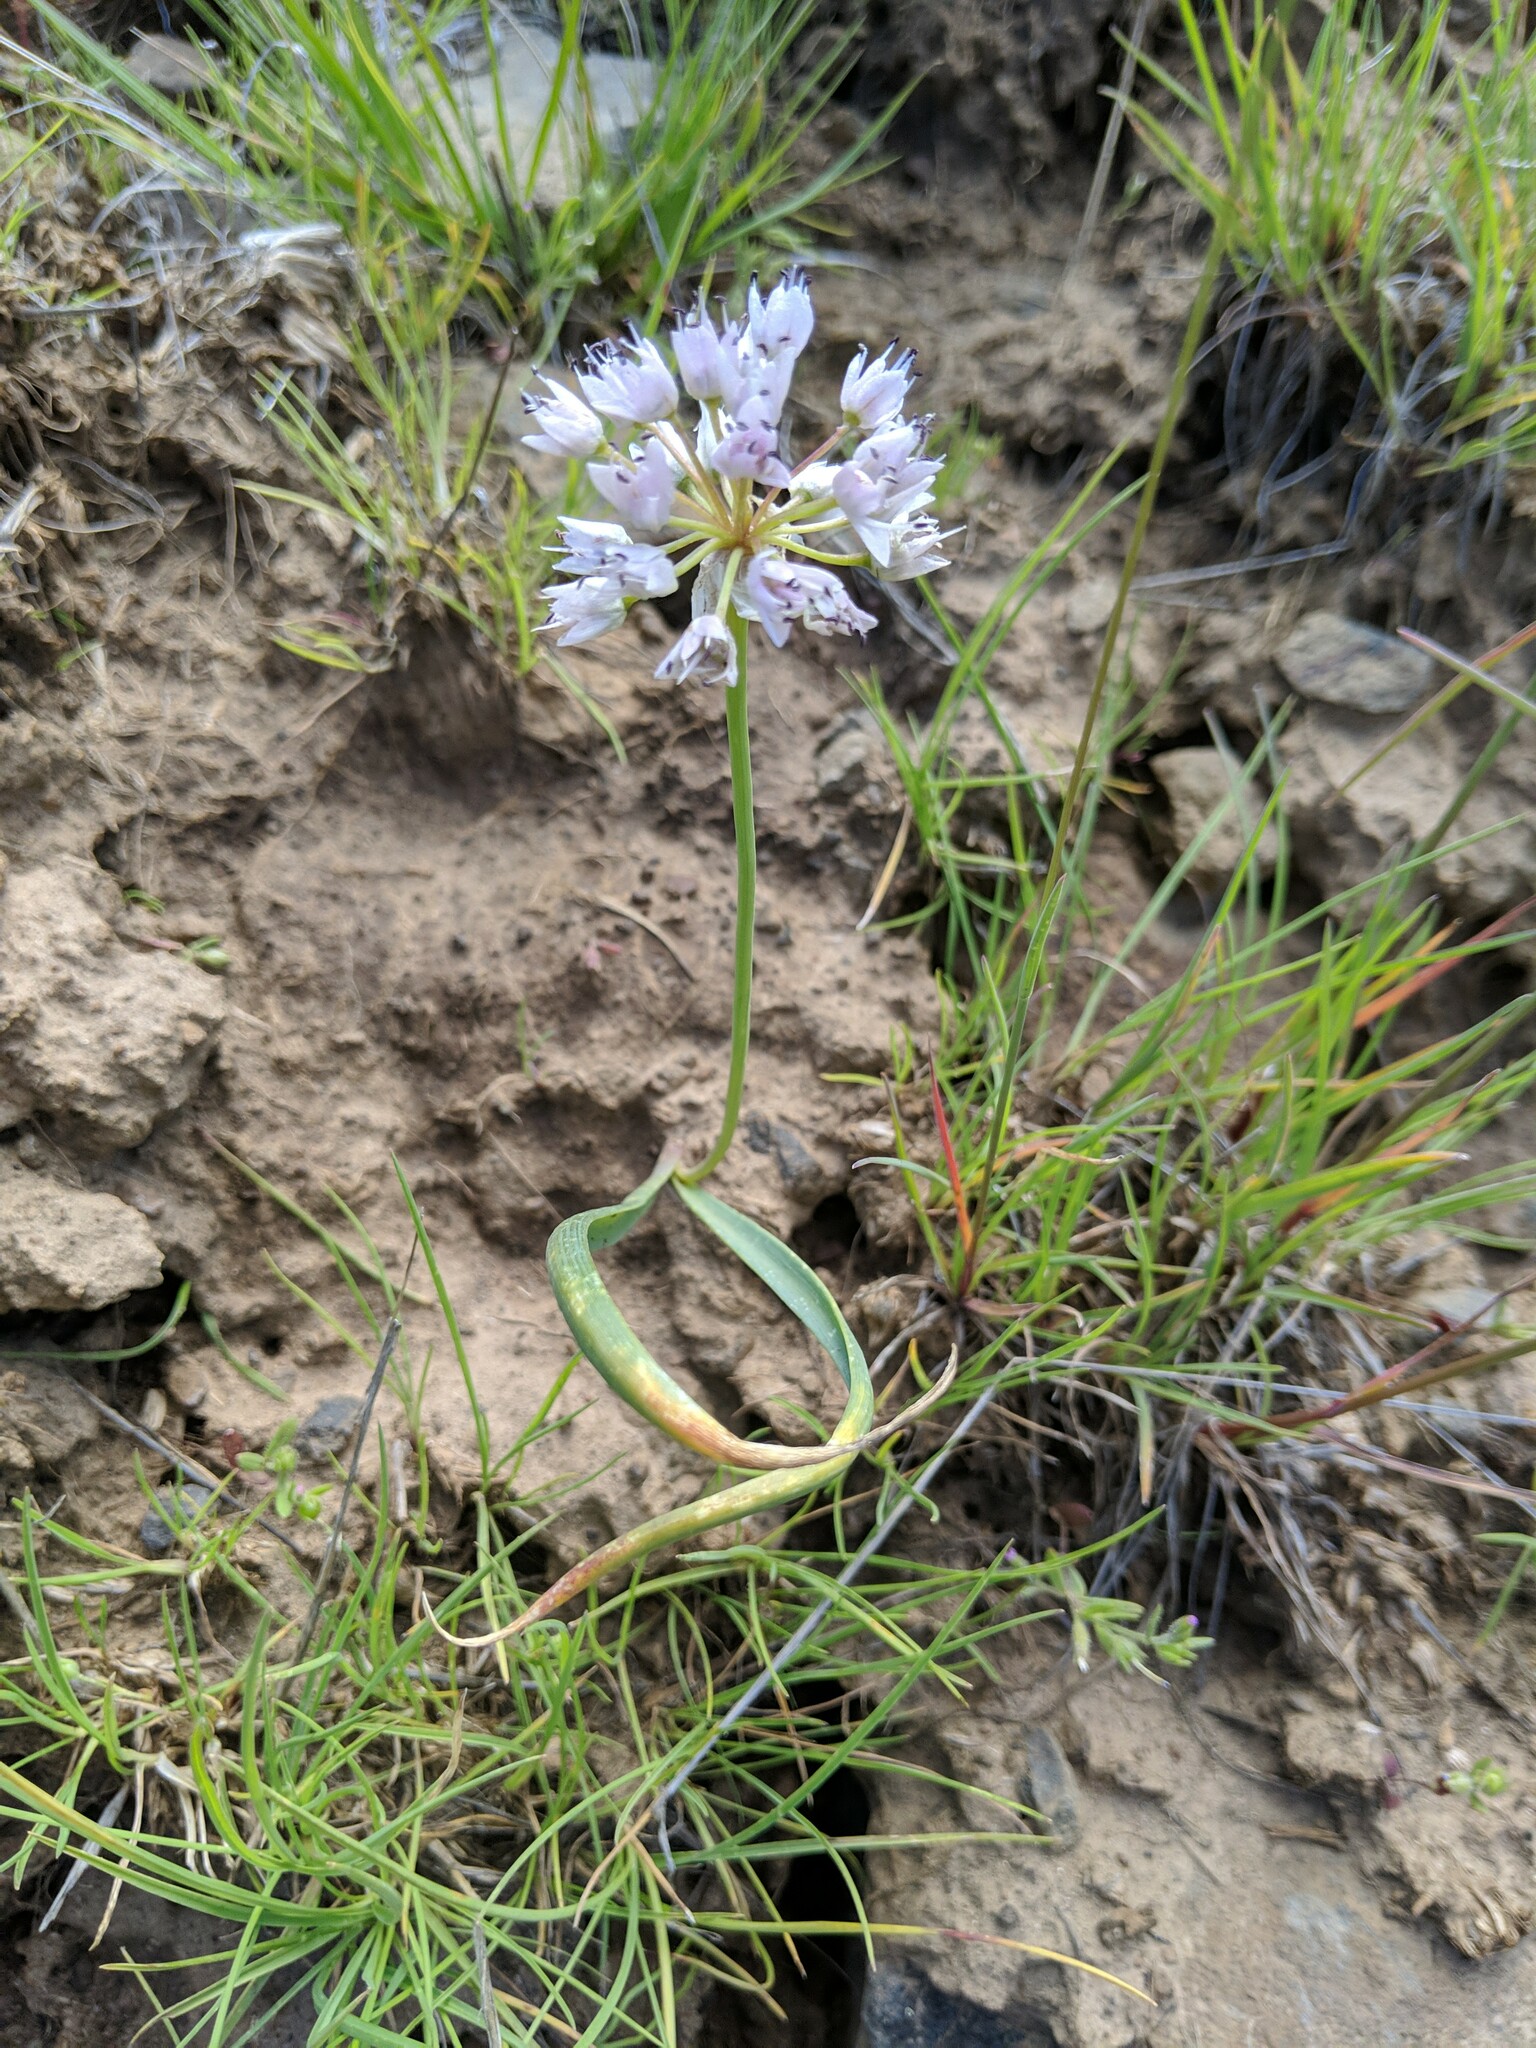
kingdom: Plantae
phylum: Tracheophyta
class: Liliopsida
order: Asparagales
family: Amaryllidaceae
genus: Allium
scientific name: Allium nevii
